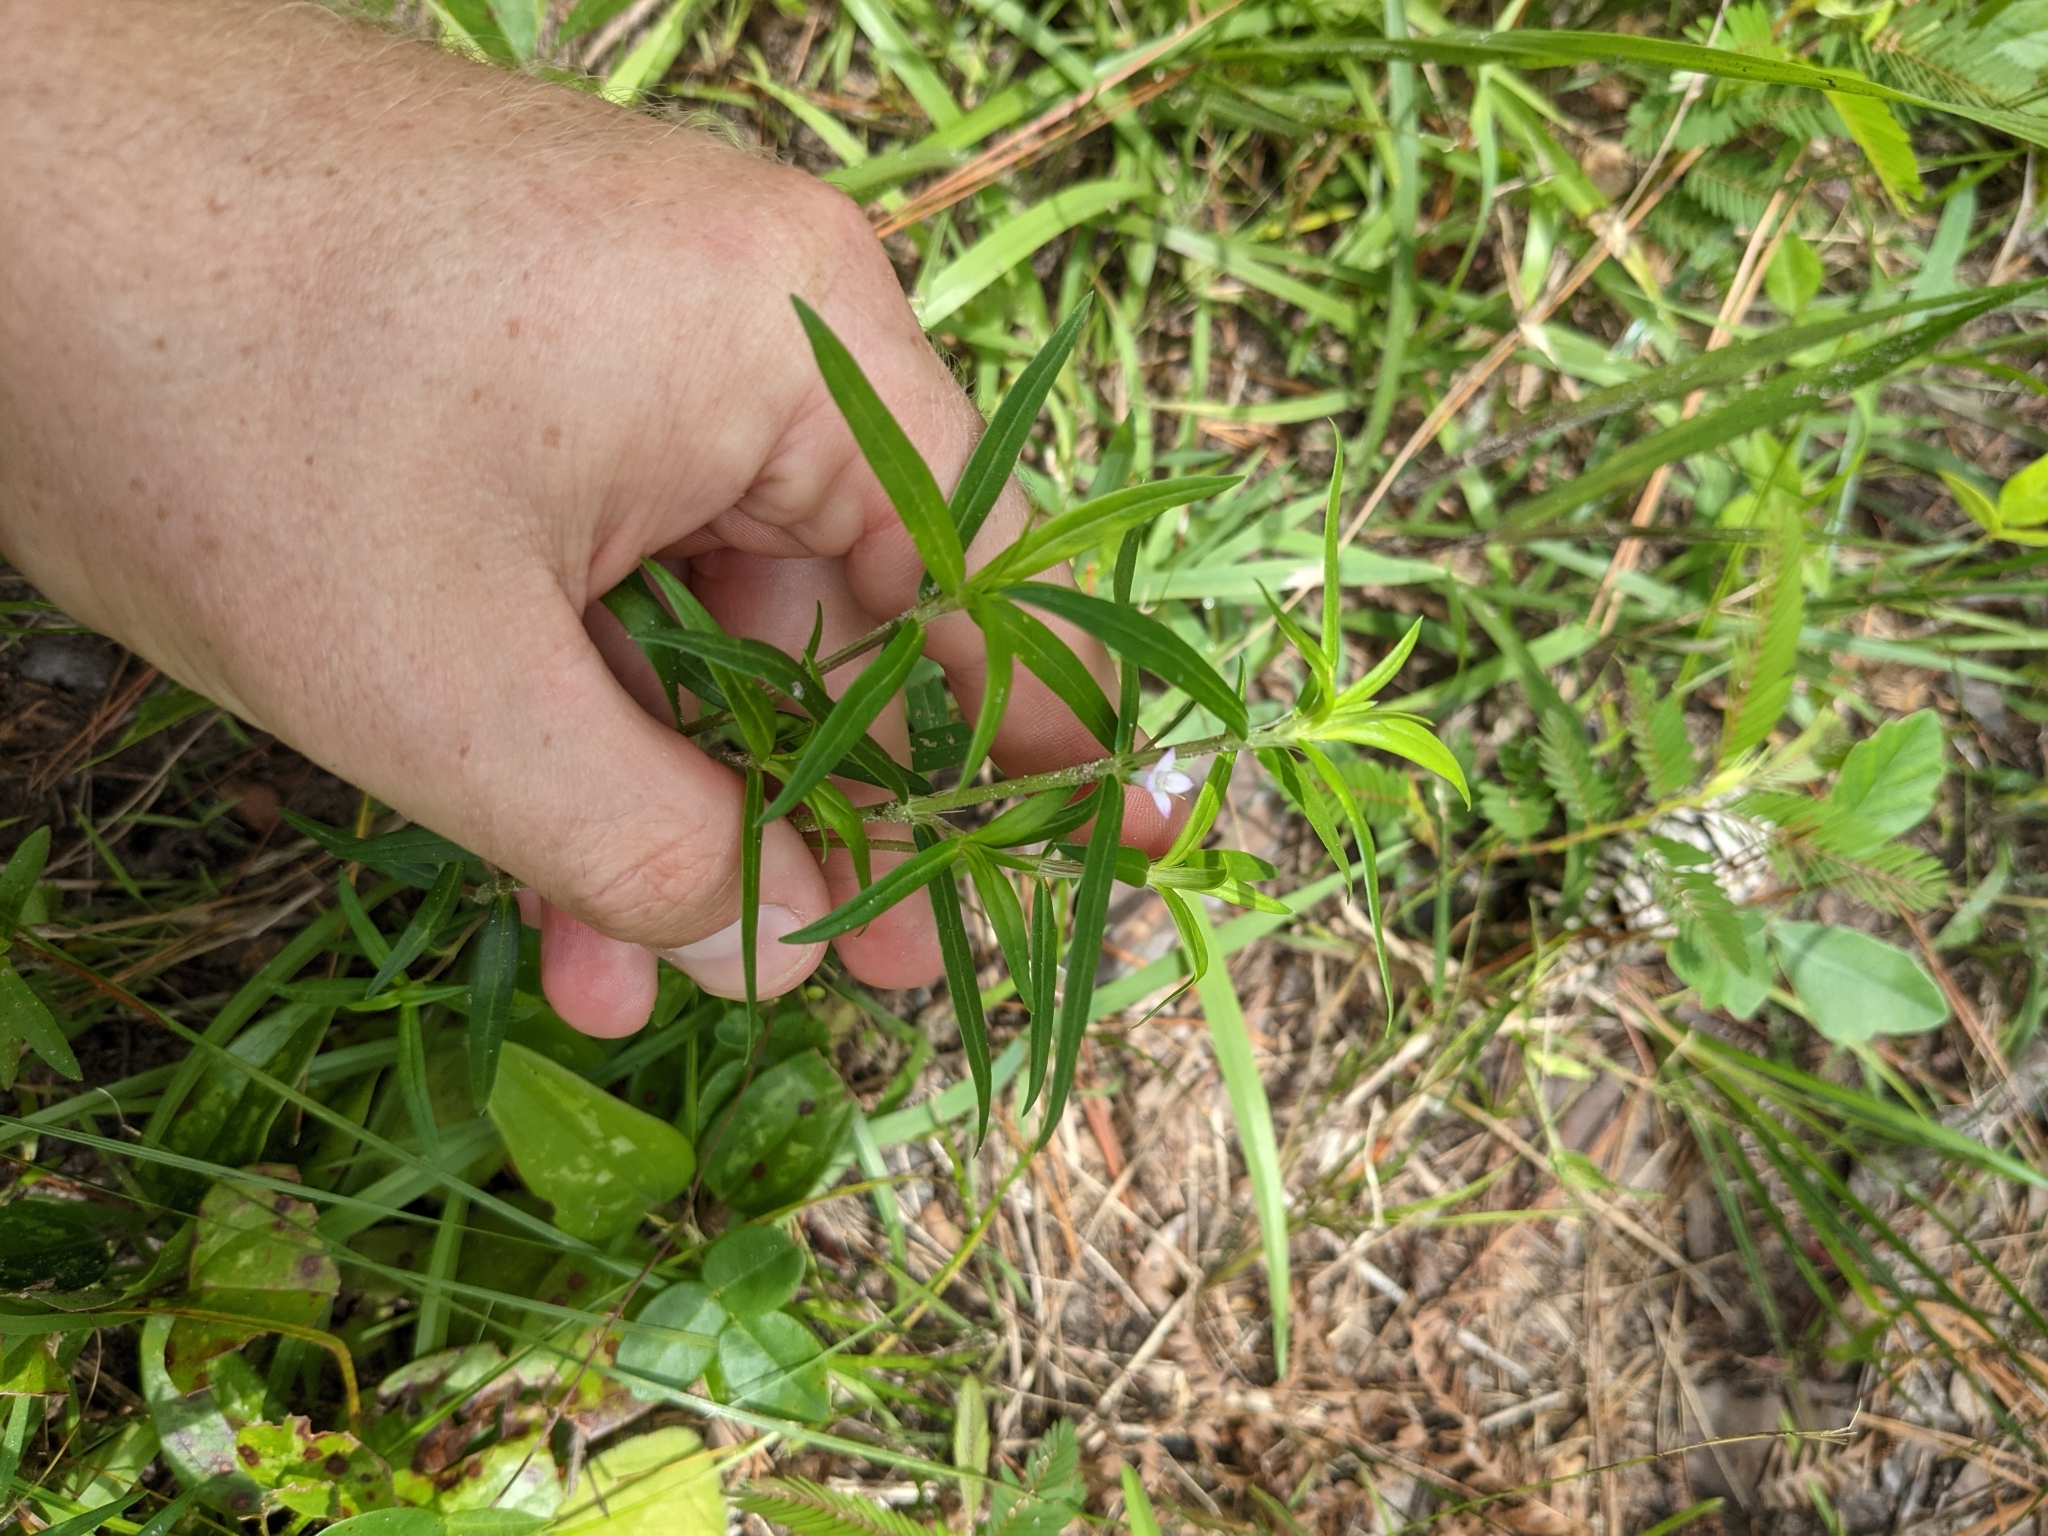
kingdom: Plantae
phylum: Tracheophyta
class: Magnoliopsida
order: Gentianales
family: Rubiaceae
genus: Hexasepalum
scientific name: Hexasepalum teres
